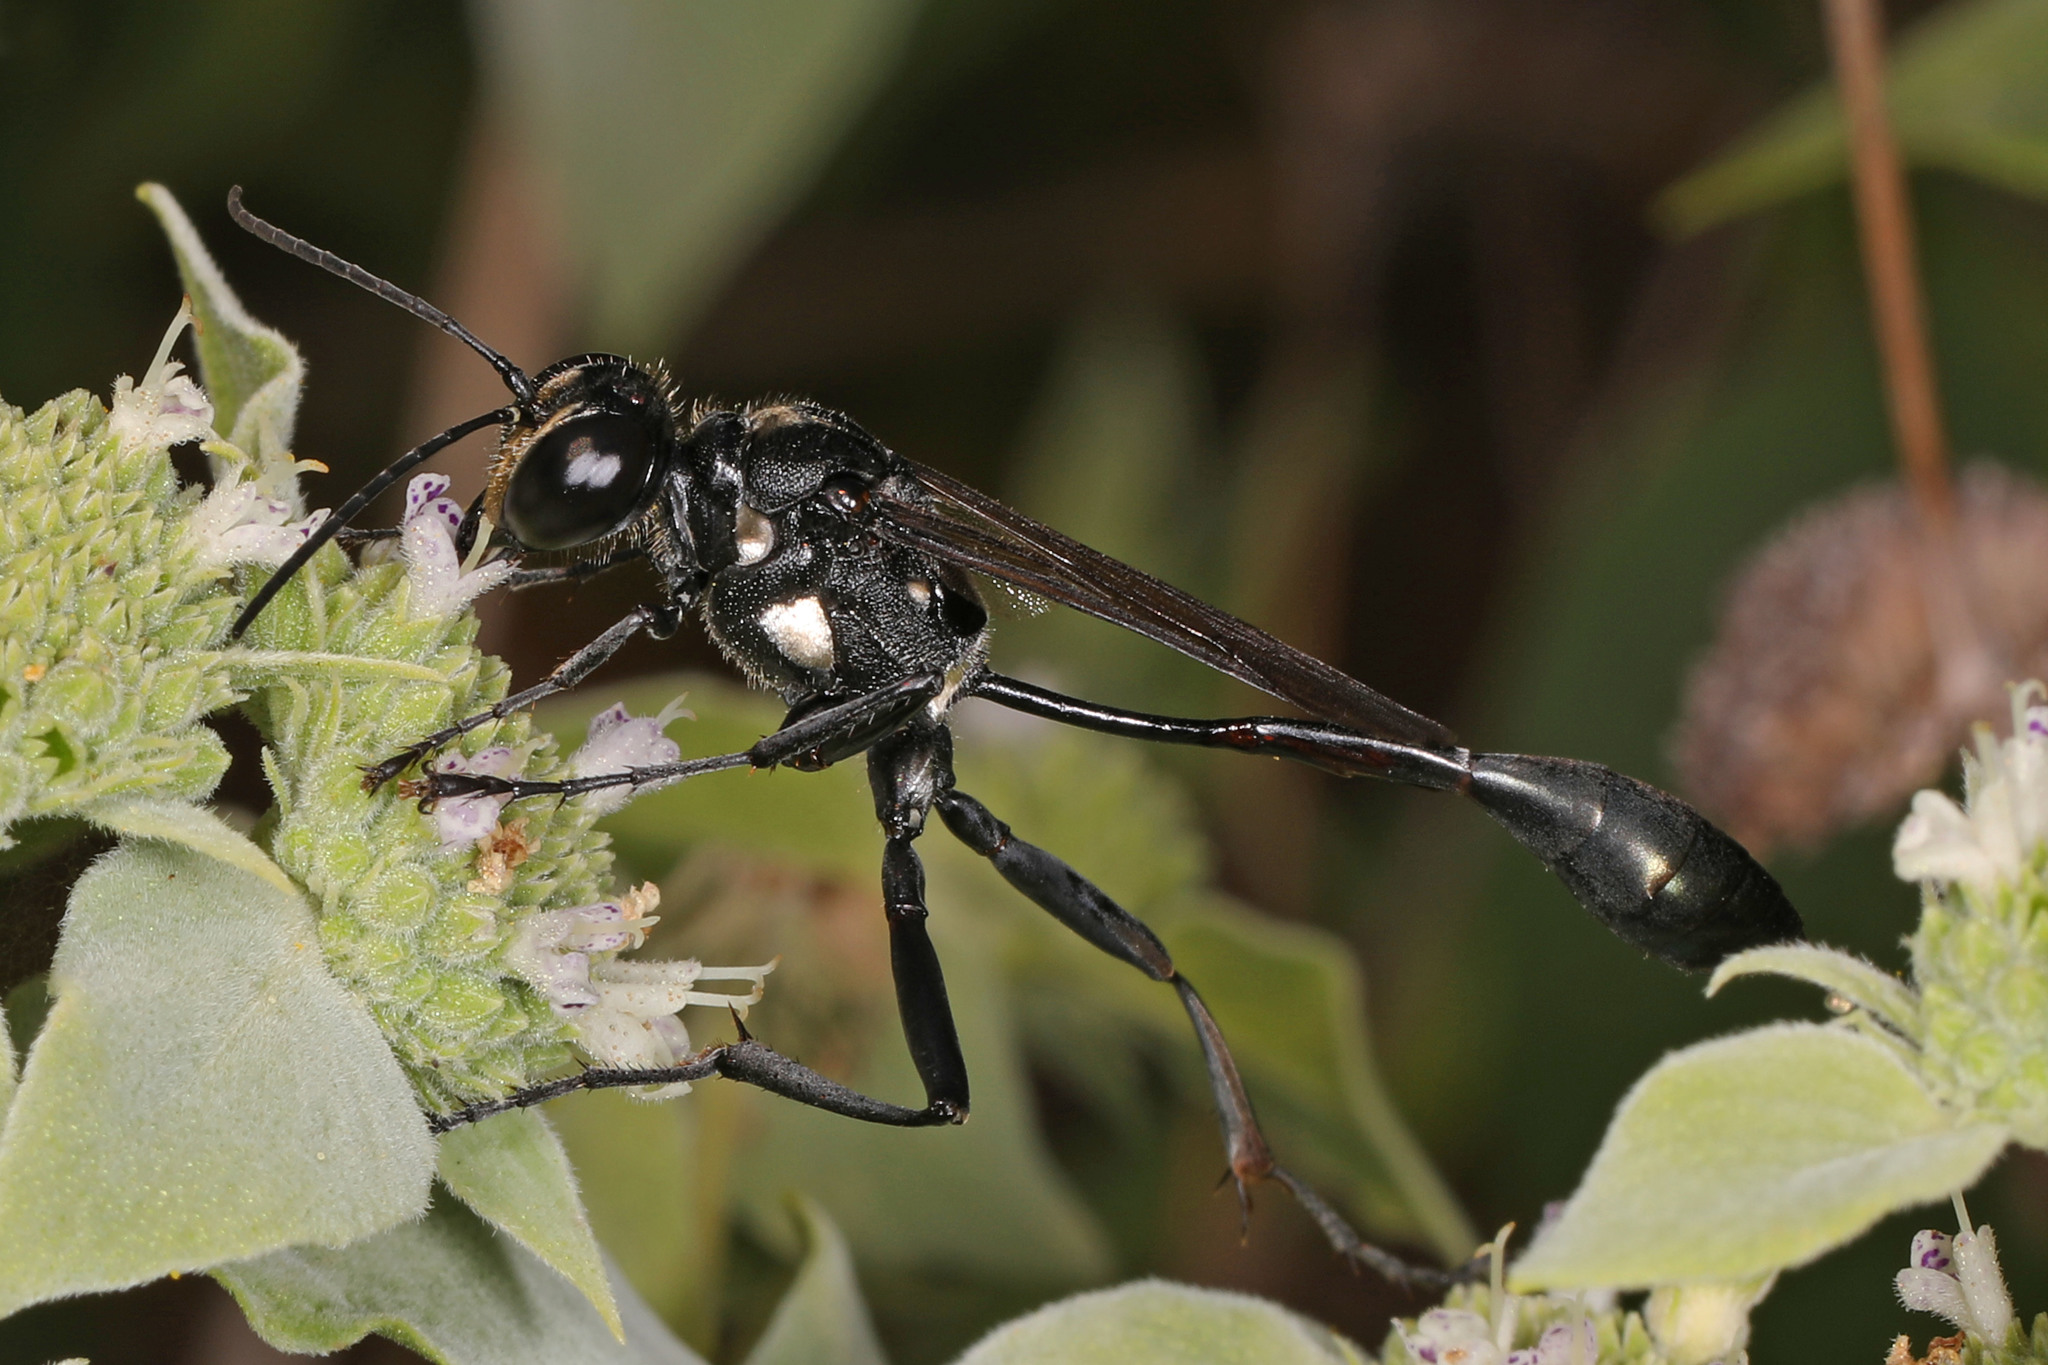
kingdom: Animalia
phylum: Arthropoda
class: Insecta
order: Hymenoptera
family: Sphecidae
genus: Eremnophila
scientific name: Eremnophila aureonotata
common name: Gold-marked thread-waisted wasp
